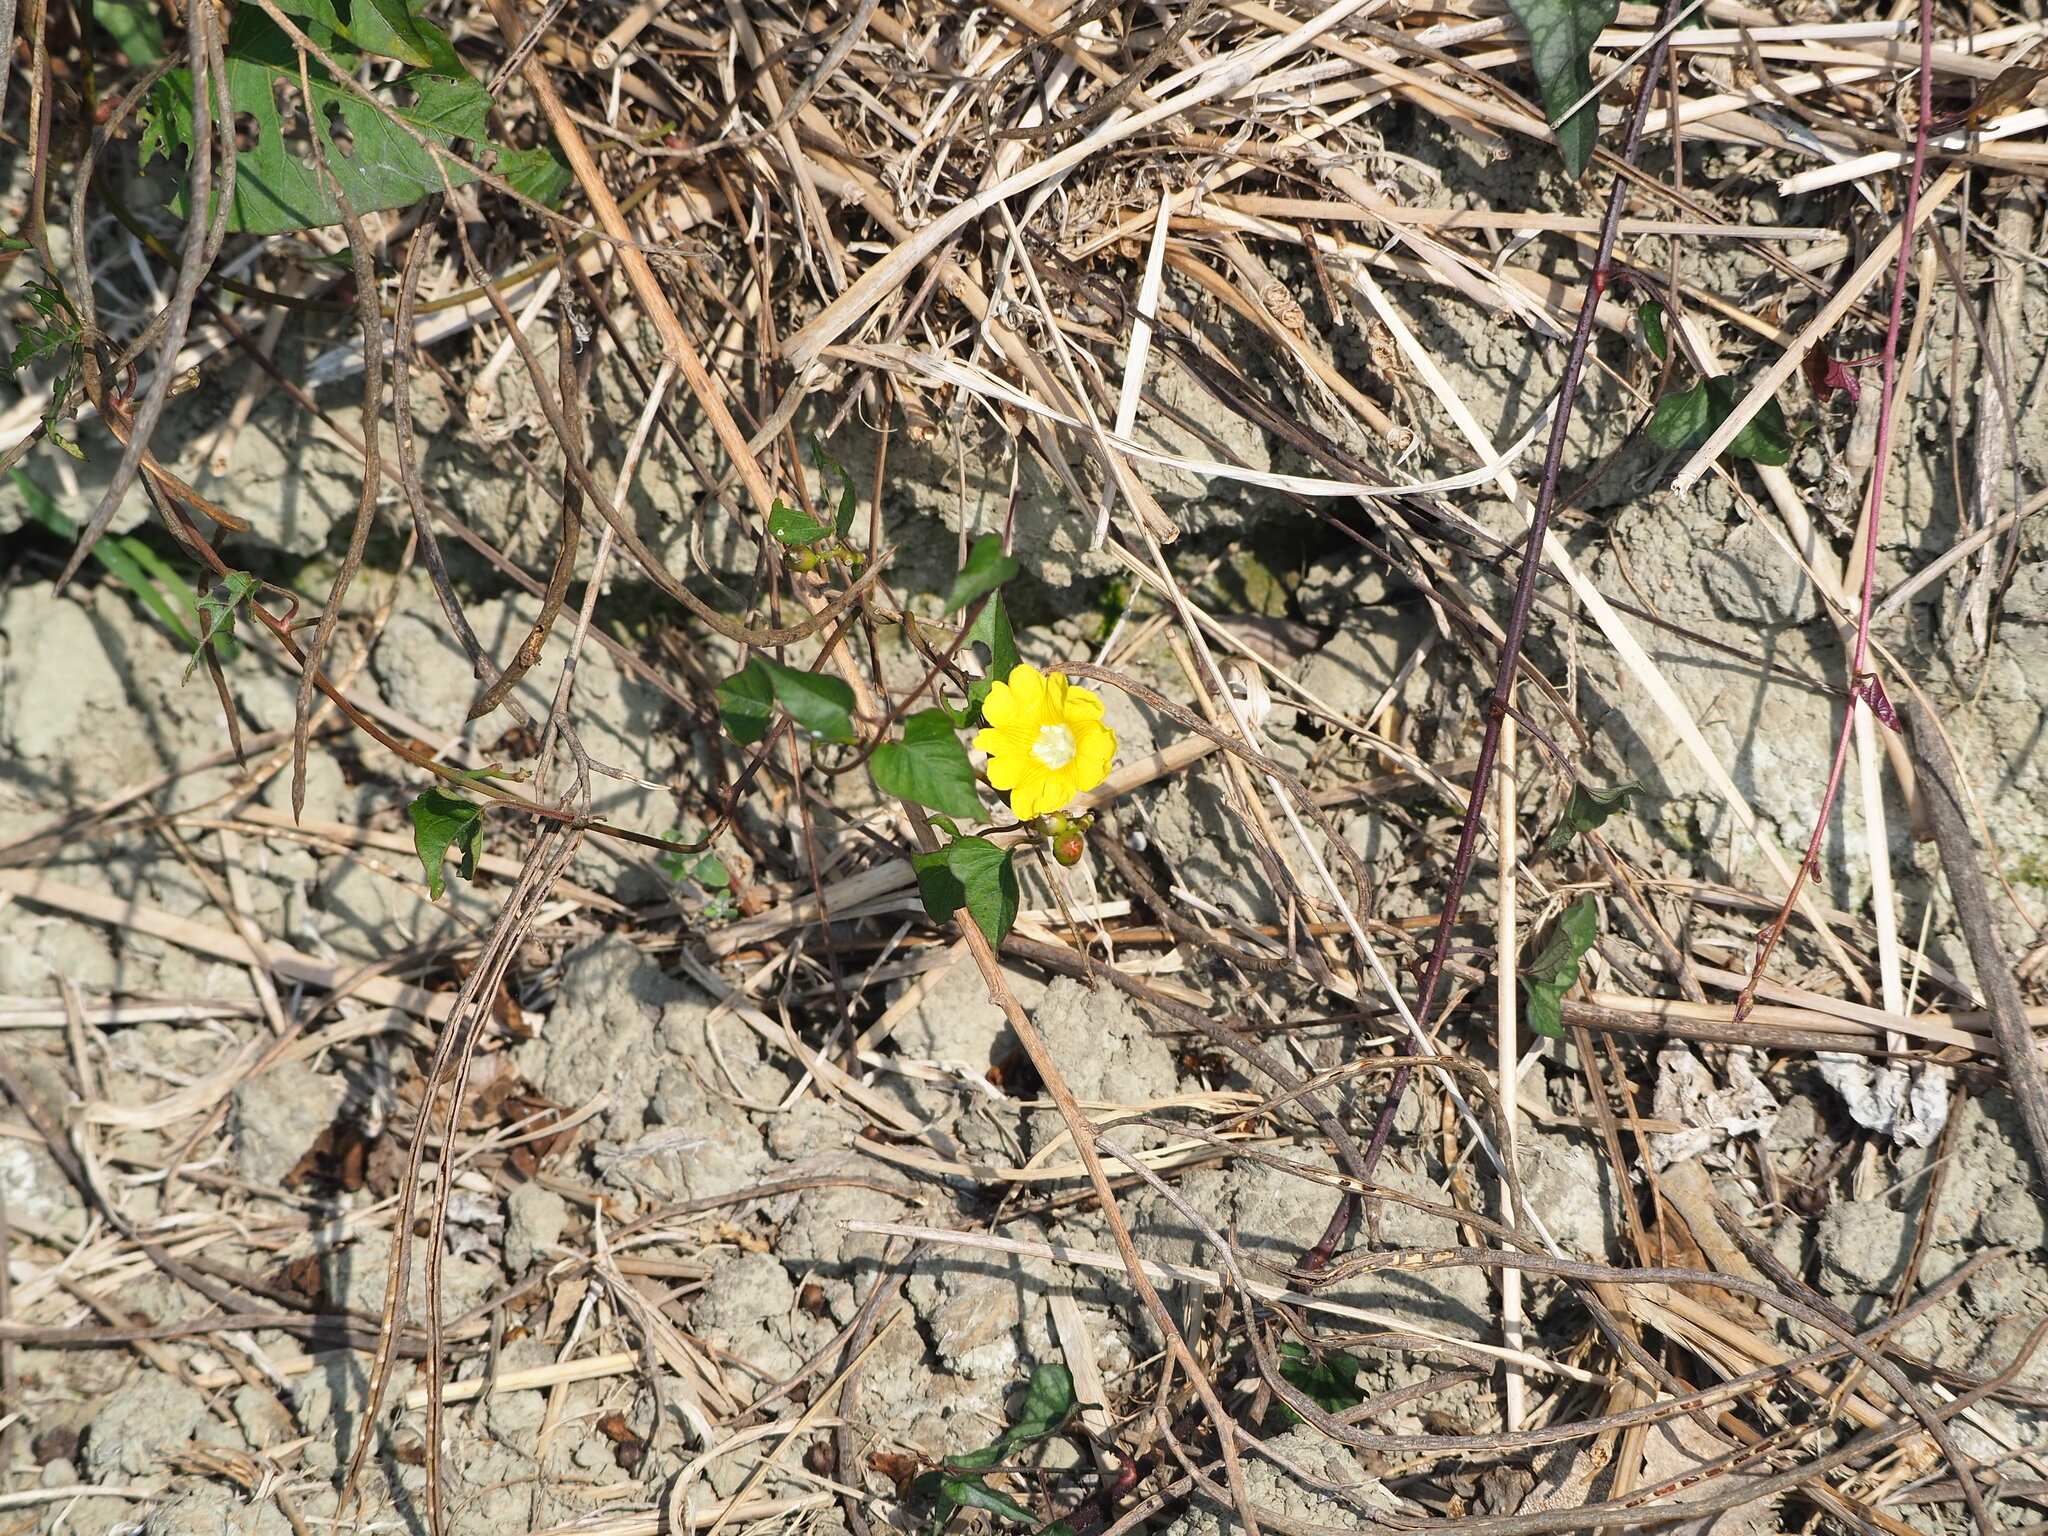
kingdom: Plantae
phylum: Tracheophyta
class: Magnoliopsida
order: Solanales
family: Convolvulaceae
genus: Merremia
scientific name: Merremia gemella
